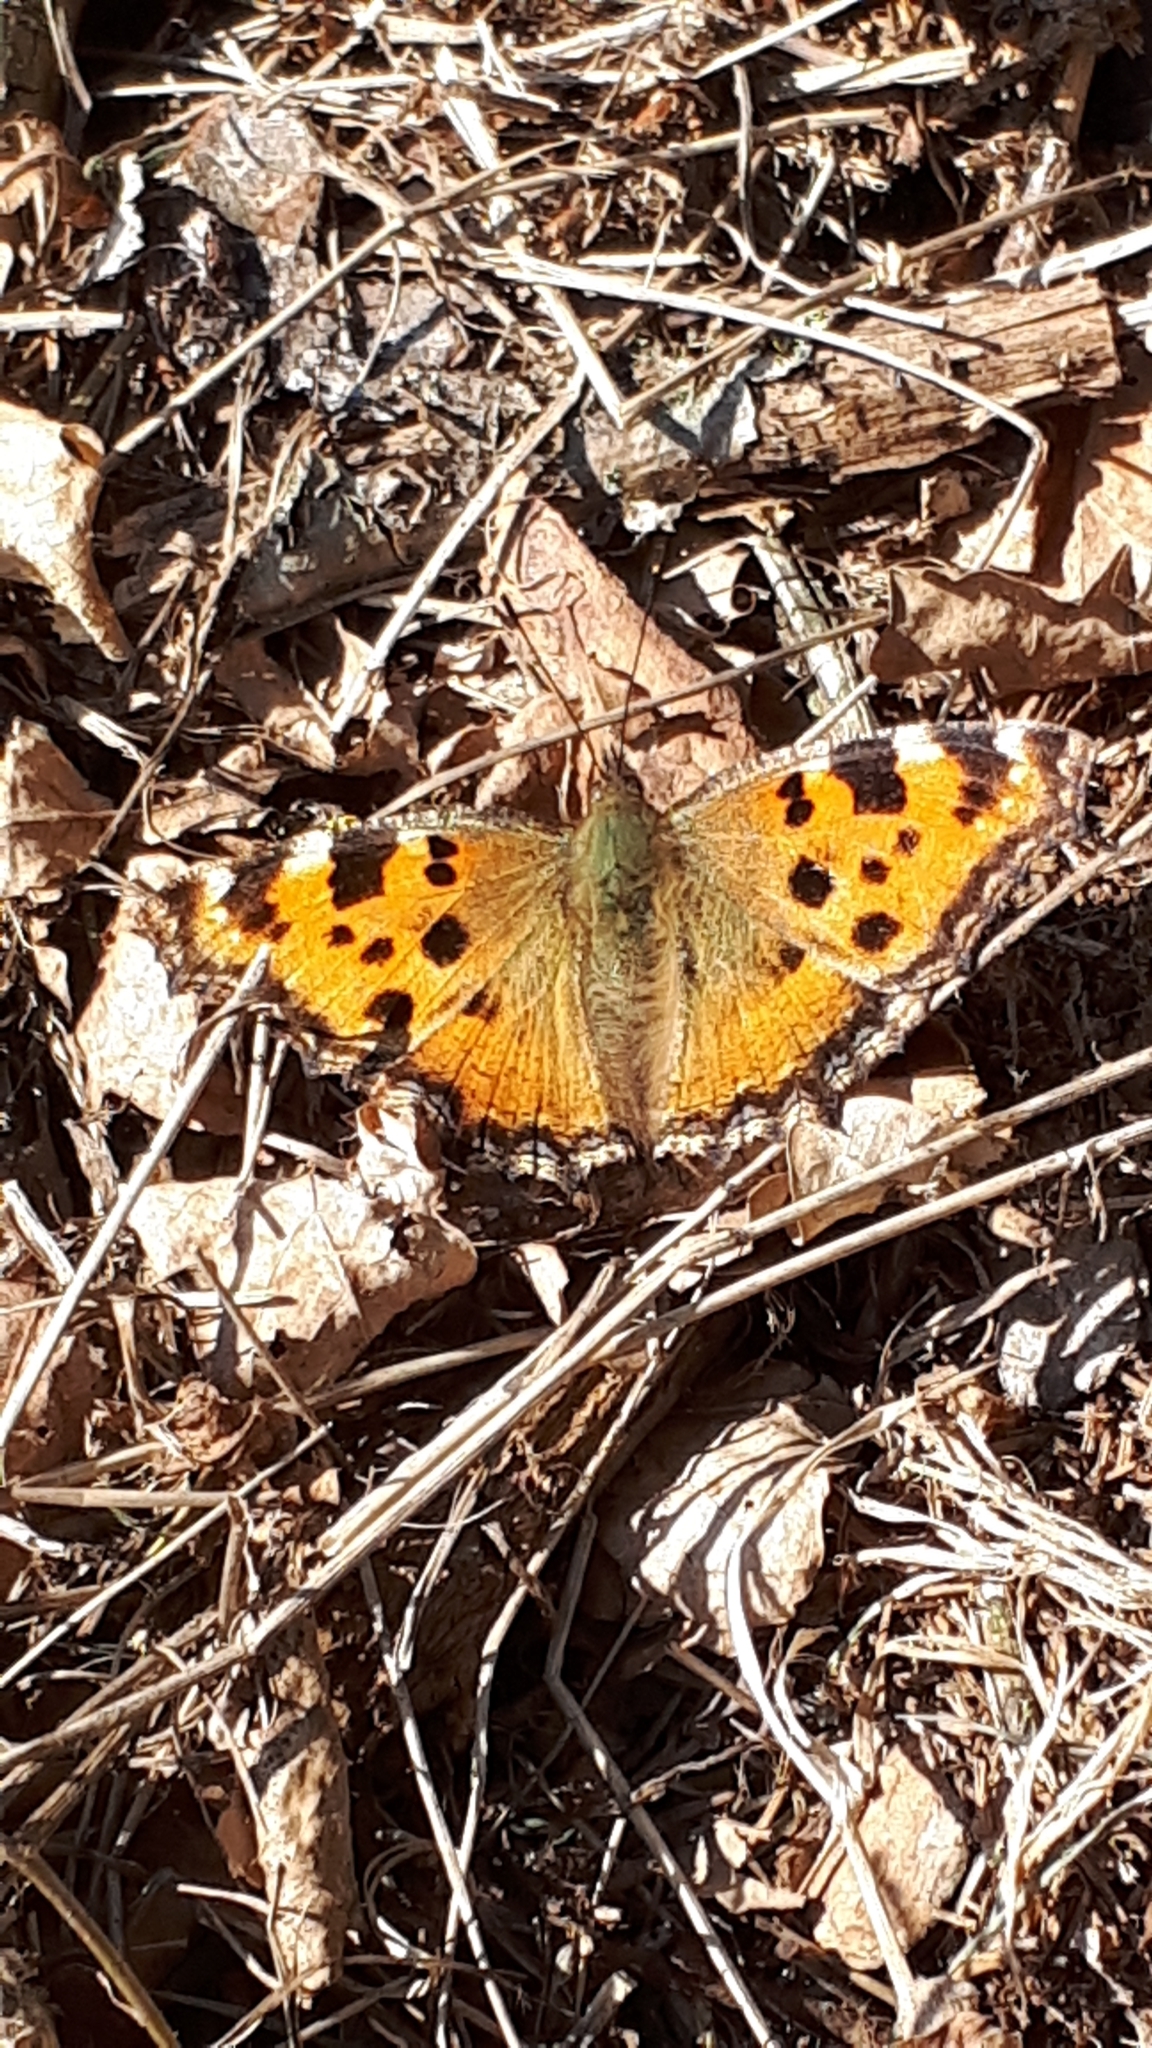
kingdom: Animalia
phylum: Arthropoda
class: Insecta
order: Lepidoptera
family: Nymphalidae
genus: Nymphalis
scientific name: Nymphalis polychloros
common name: Large tortoiseshell
